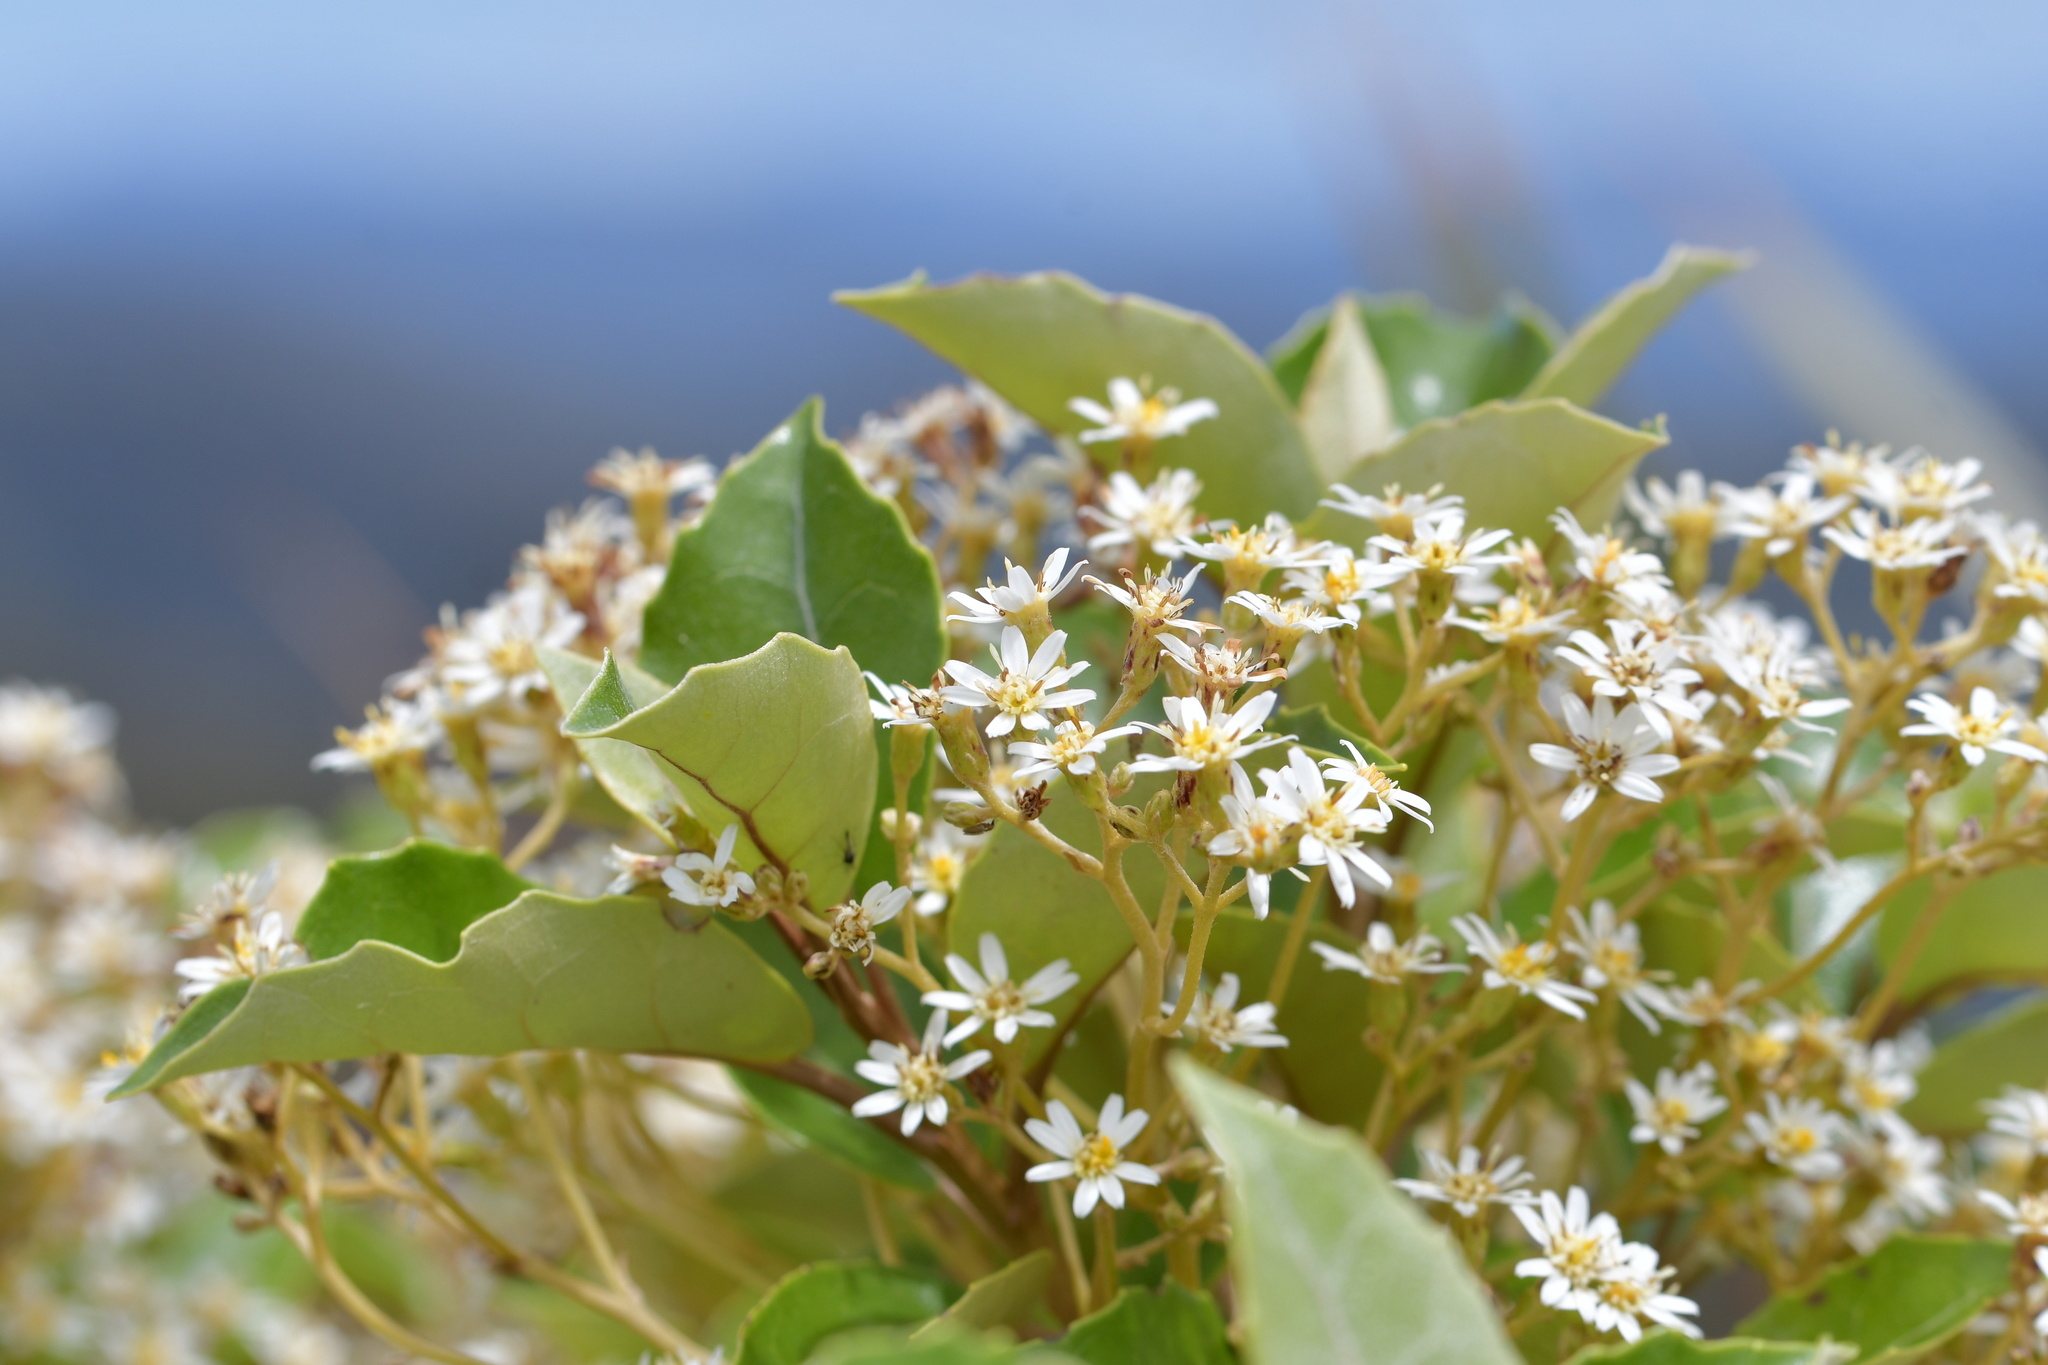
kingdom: Plantae
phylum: Tracheophyta
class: Magnoliopsida
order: Asterales
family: Asteraceae
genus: Olearia
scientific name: Olearia arborescens
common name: Glossy tree daisy
